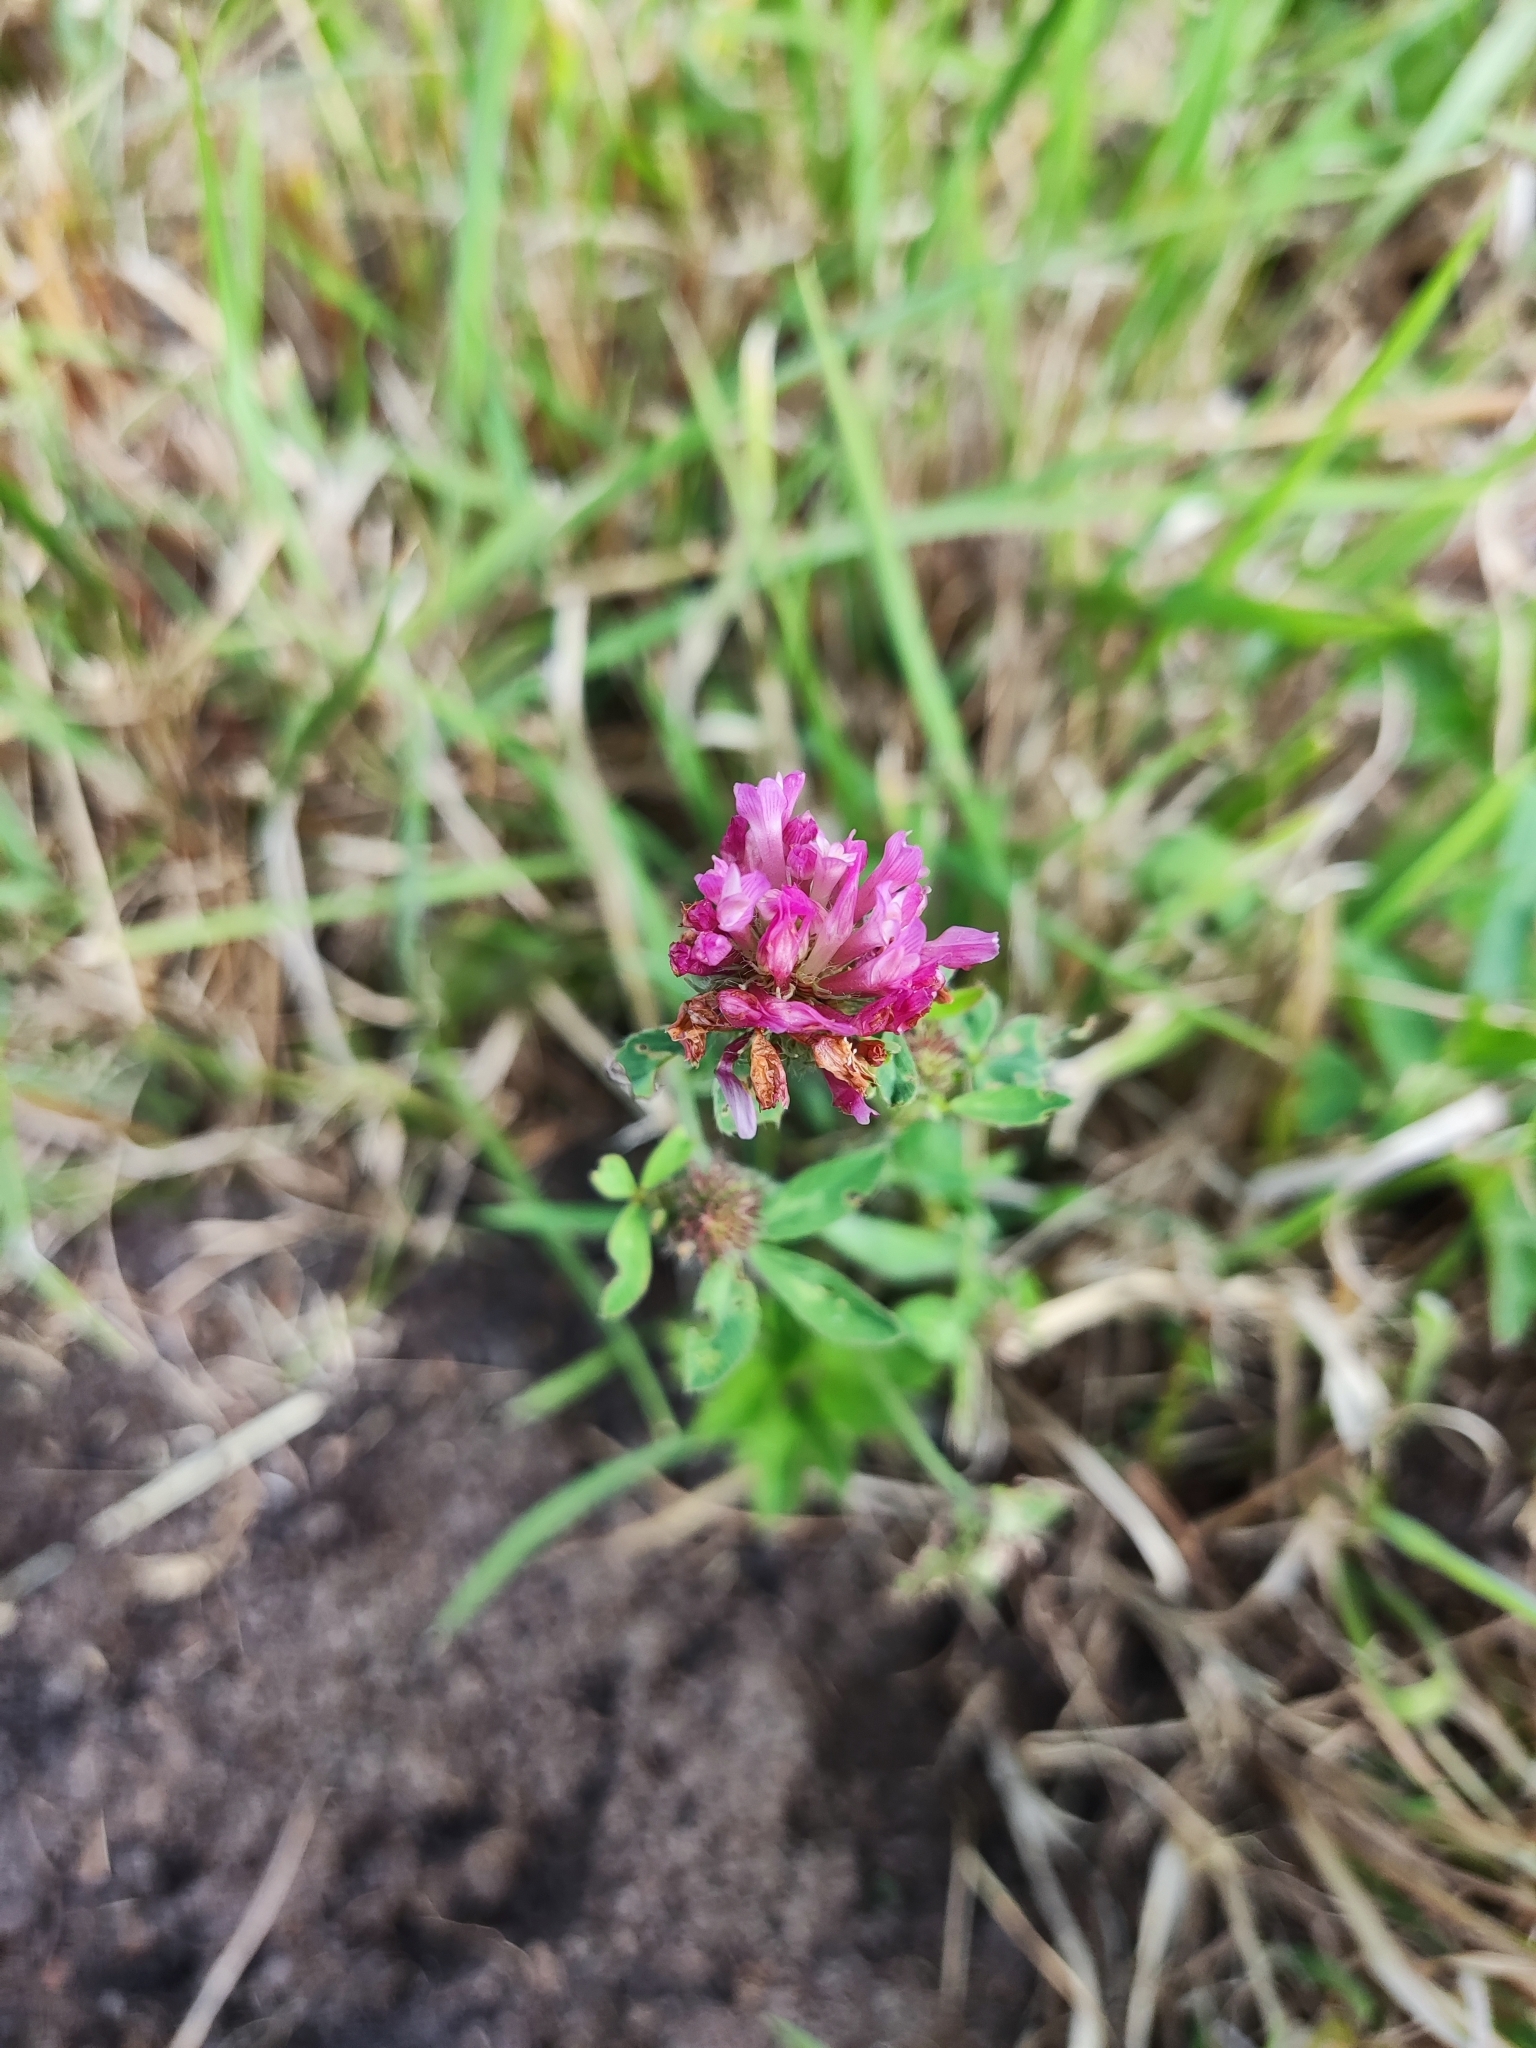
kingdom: Plantae
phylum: Tracheophyta
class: Magnoliopsida
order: Fabales
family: Fabaceae
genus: Trifolium
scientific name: Trifolium pratense
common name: Red clover
